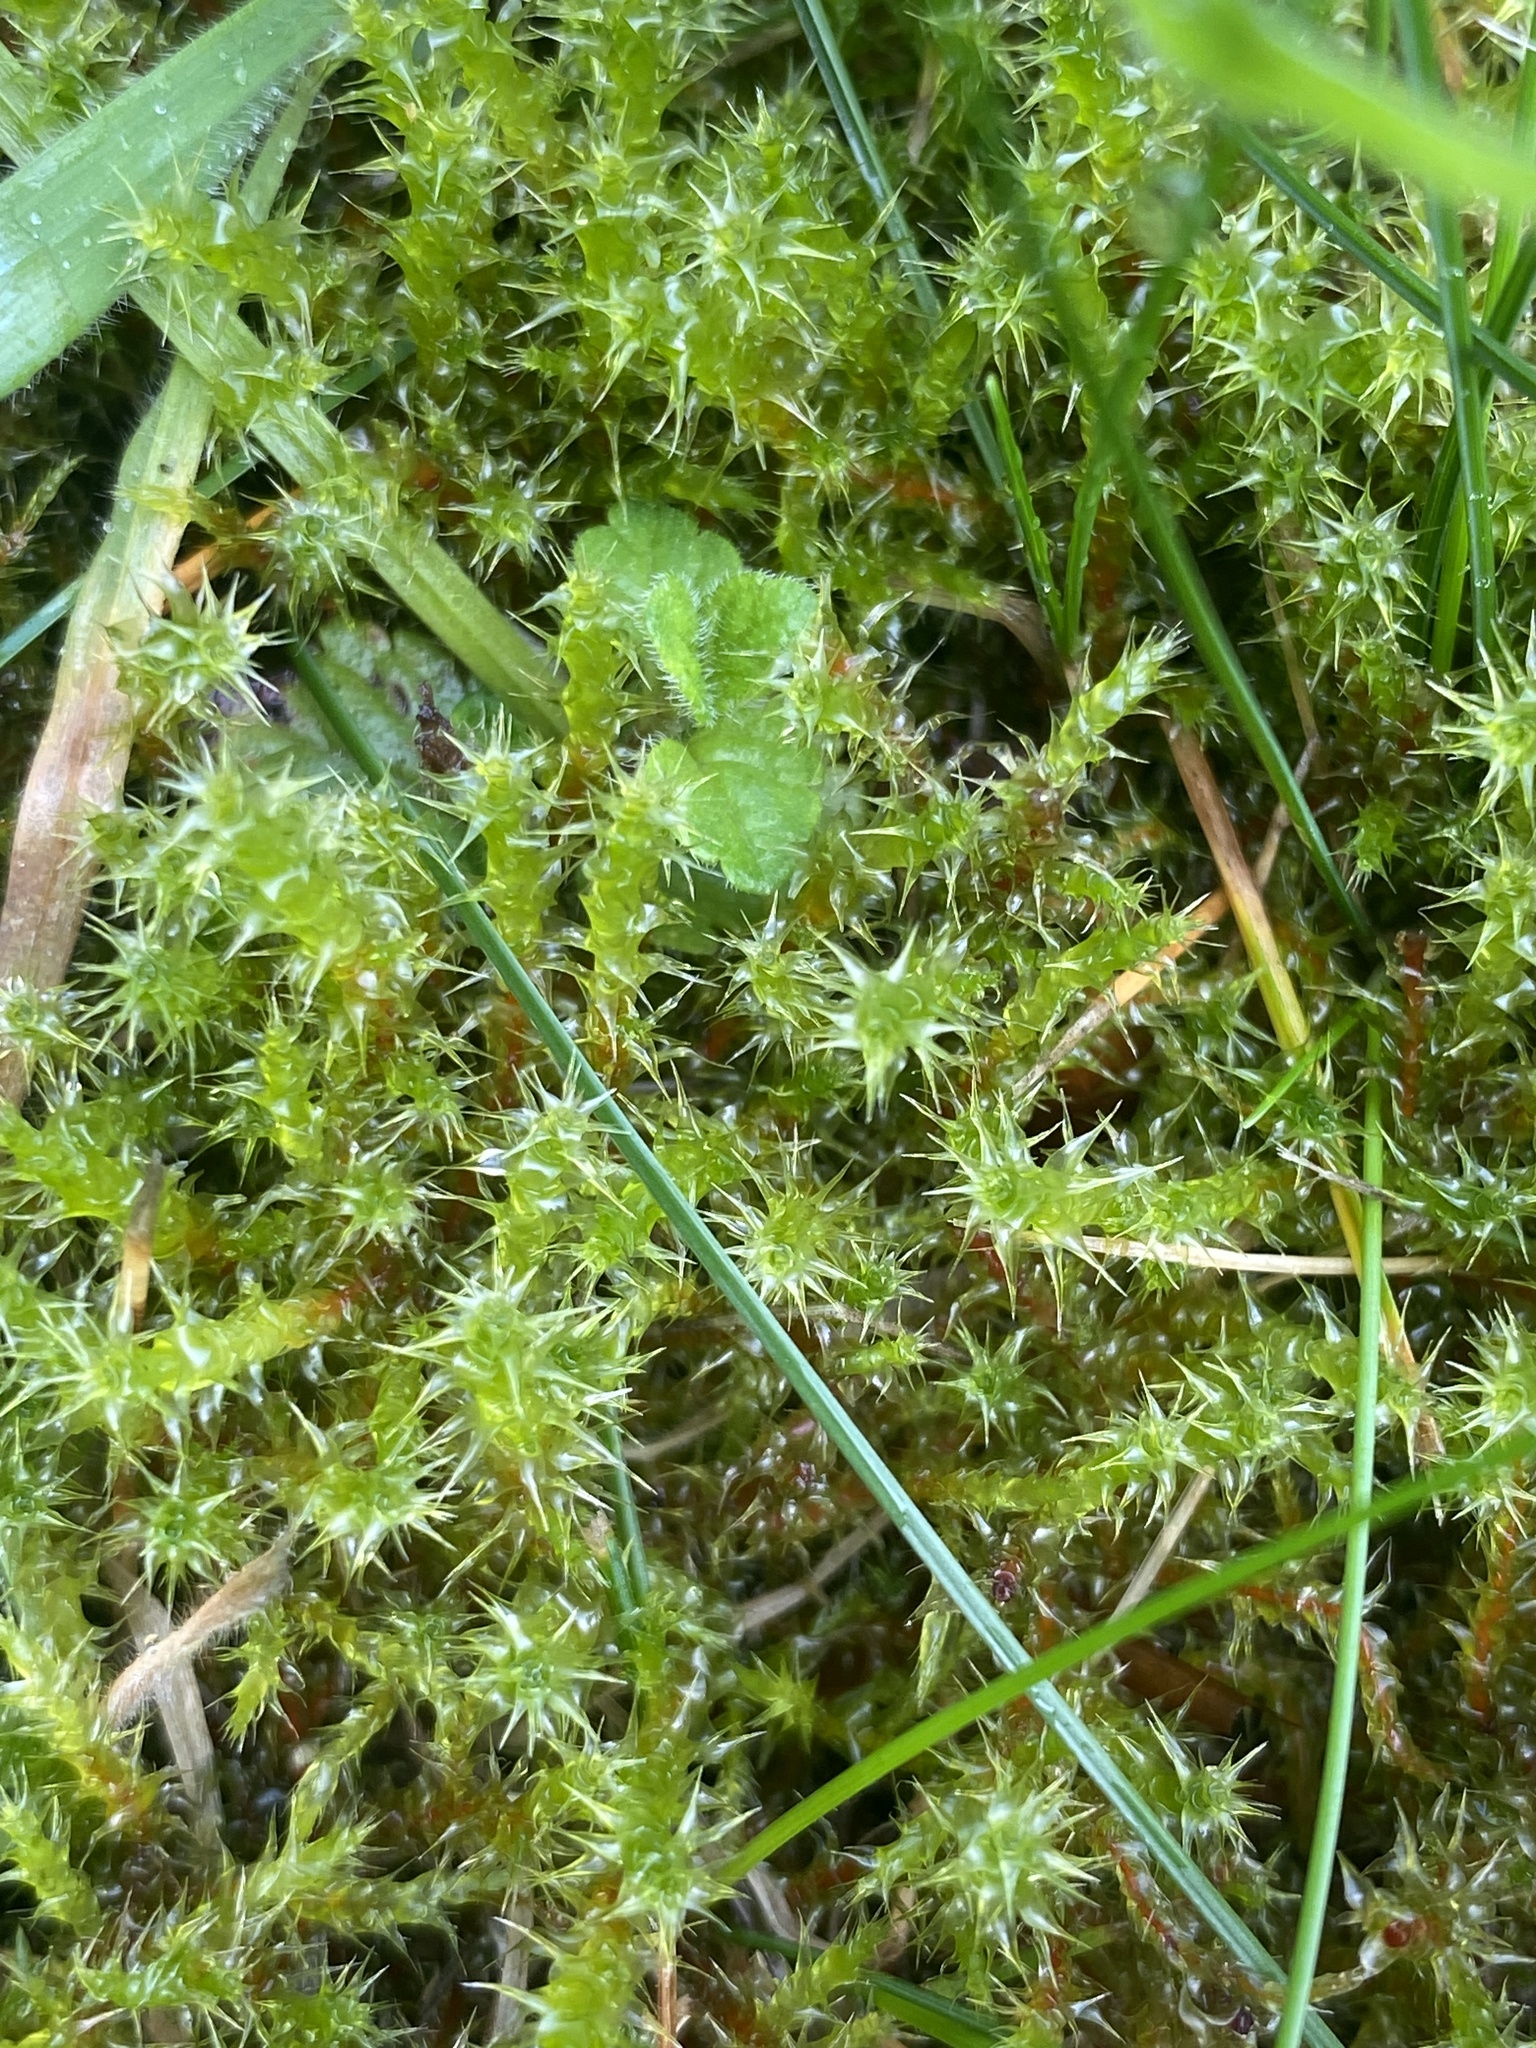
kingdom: Plantae
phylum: Bryophyta
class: Bryopsida
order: Hypnales
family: Hylocomiaceae
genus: Rhytidiadelphus
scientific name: Rhytidiadelphus squarrosus
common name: Springy turf-moss
